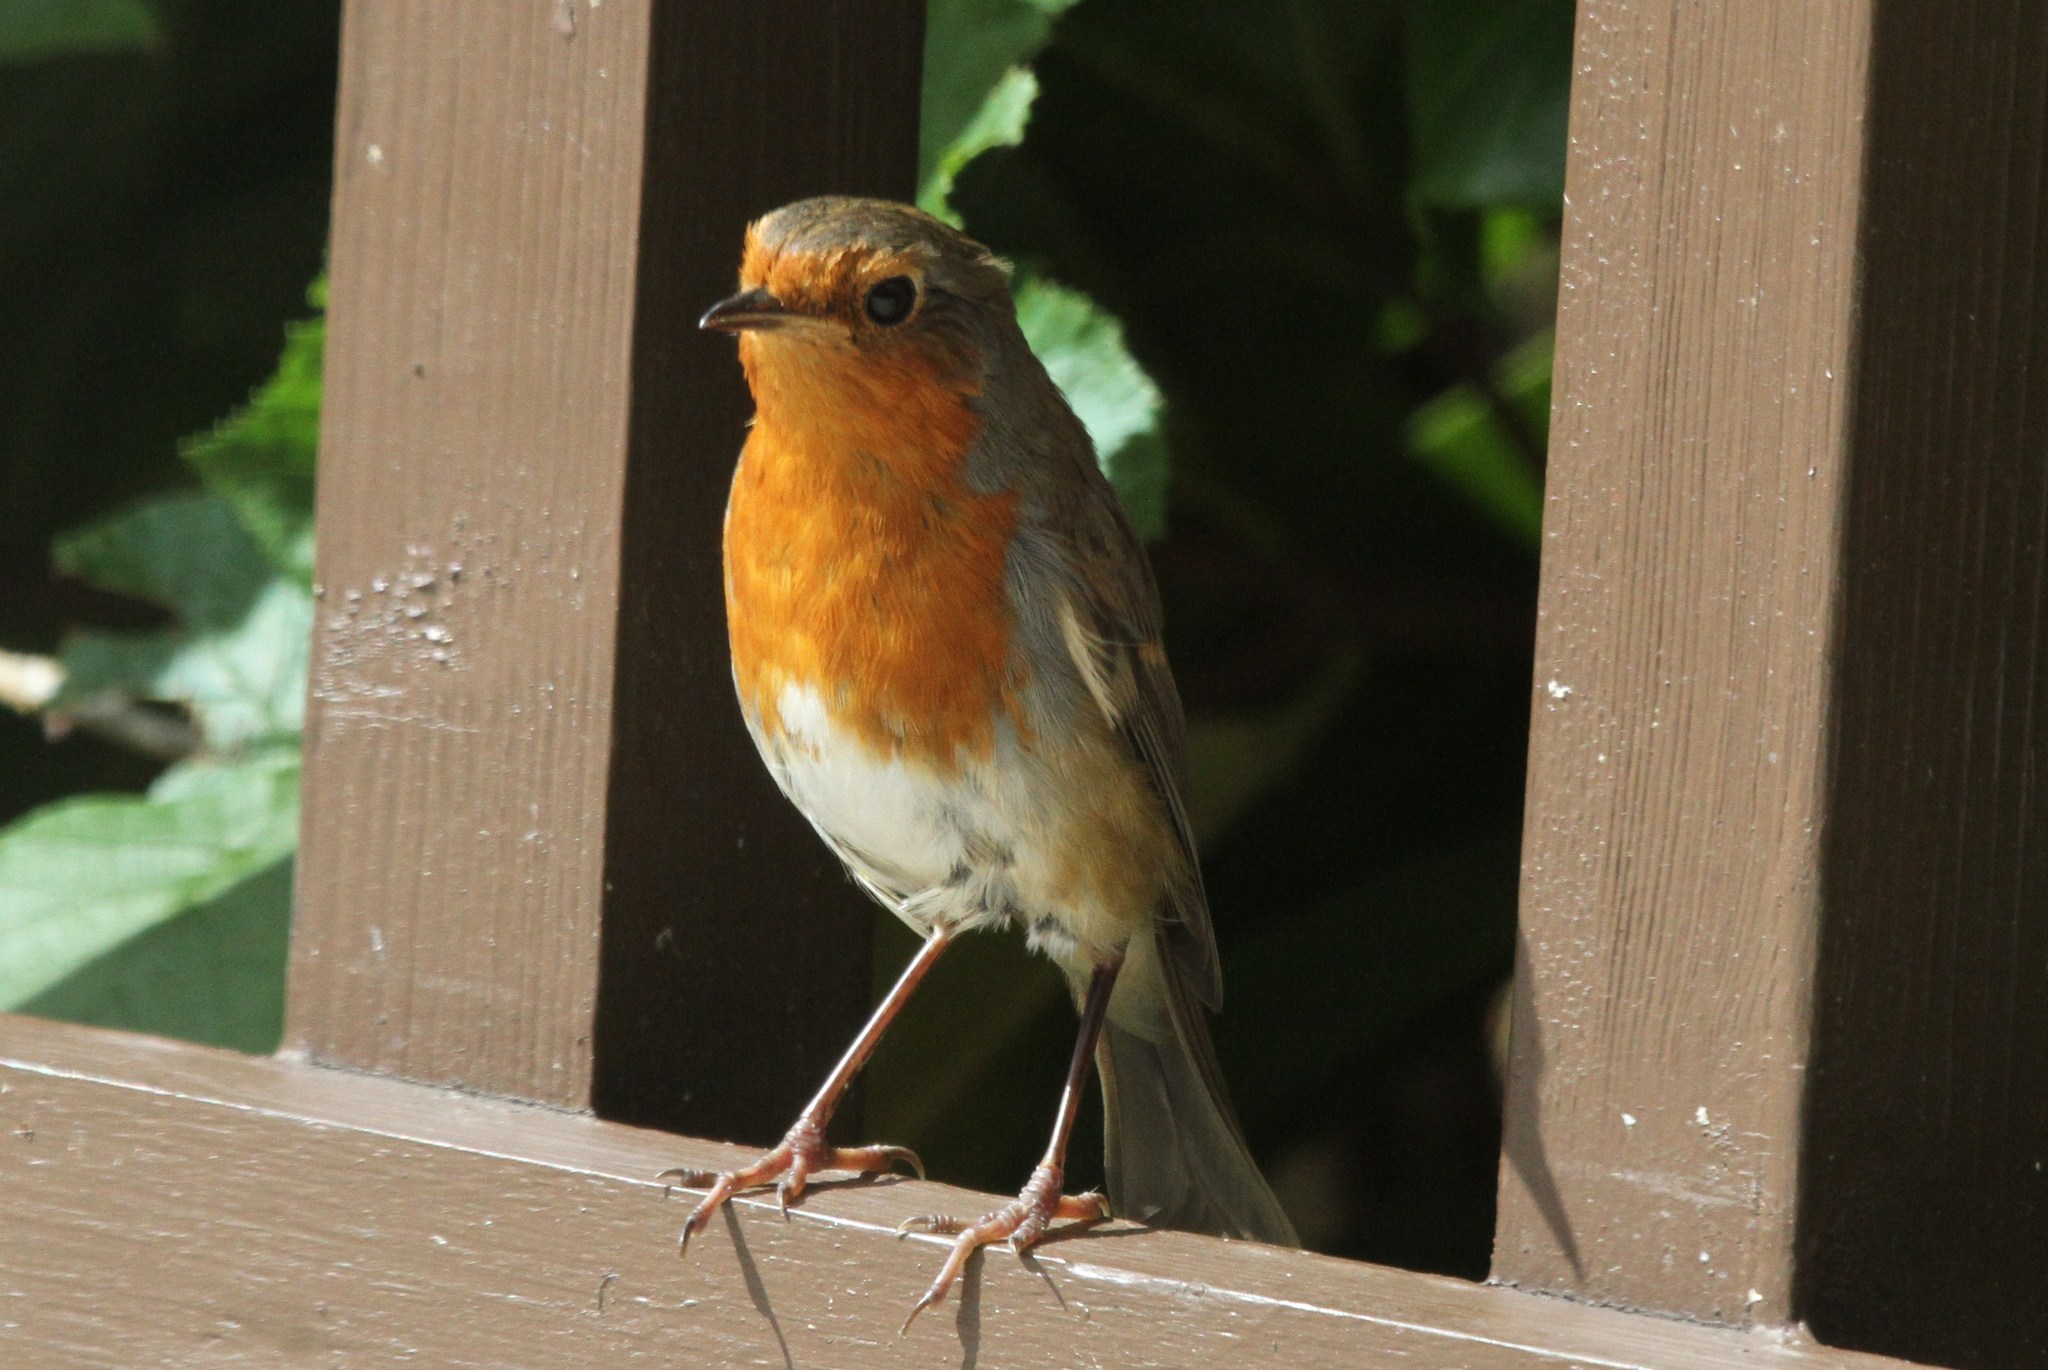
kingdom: Animalia
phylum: Chordata
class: Aves
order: Passeriformes
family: Muscicapidae
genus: Erithacus
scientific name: Erithacus rubecula
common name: European robin
